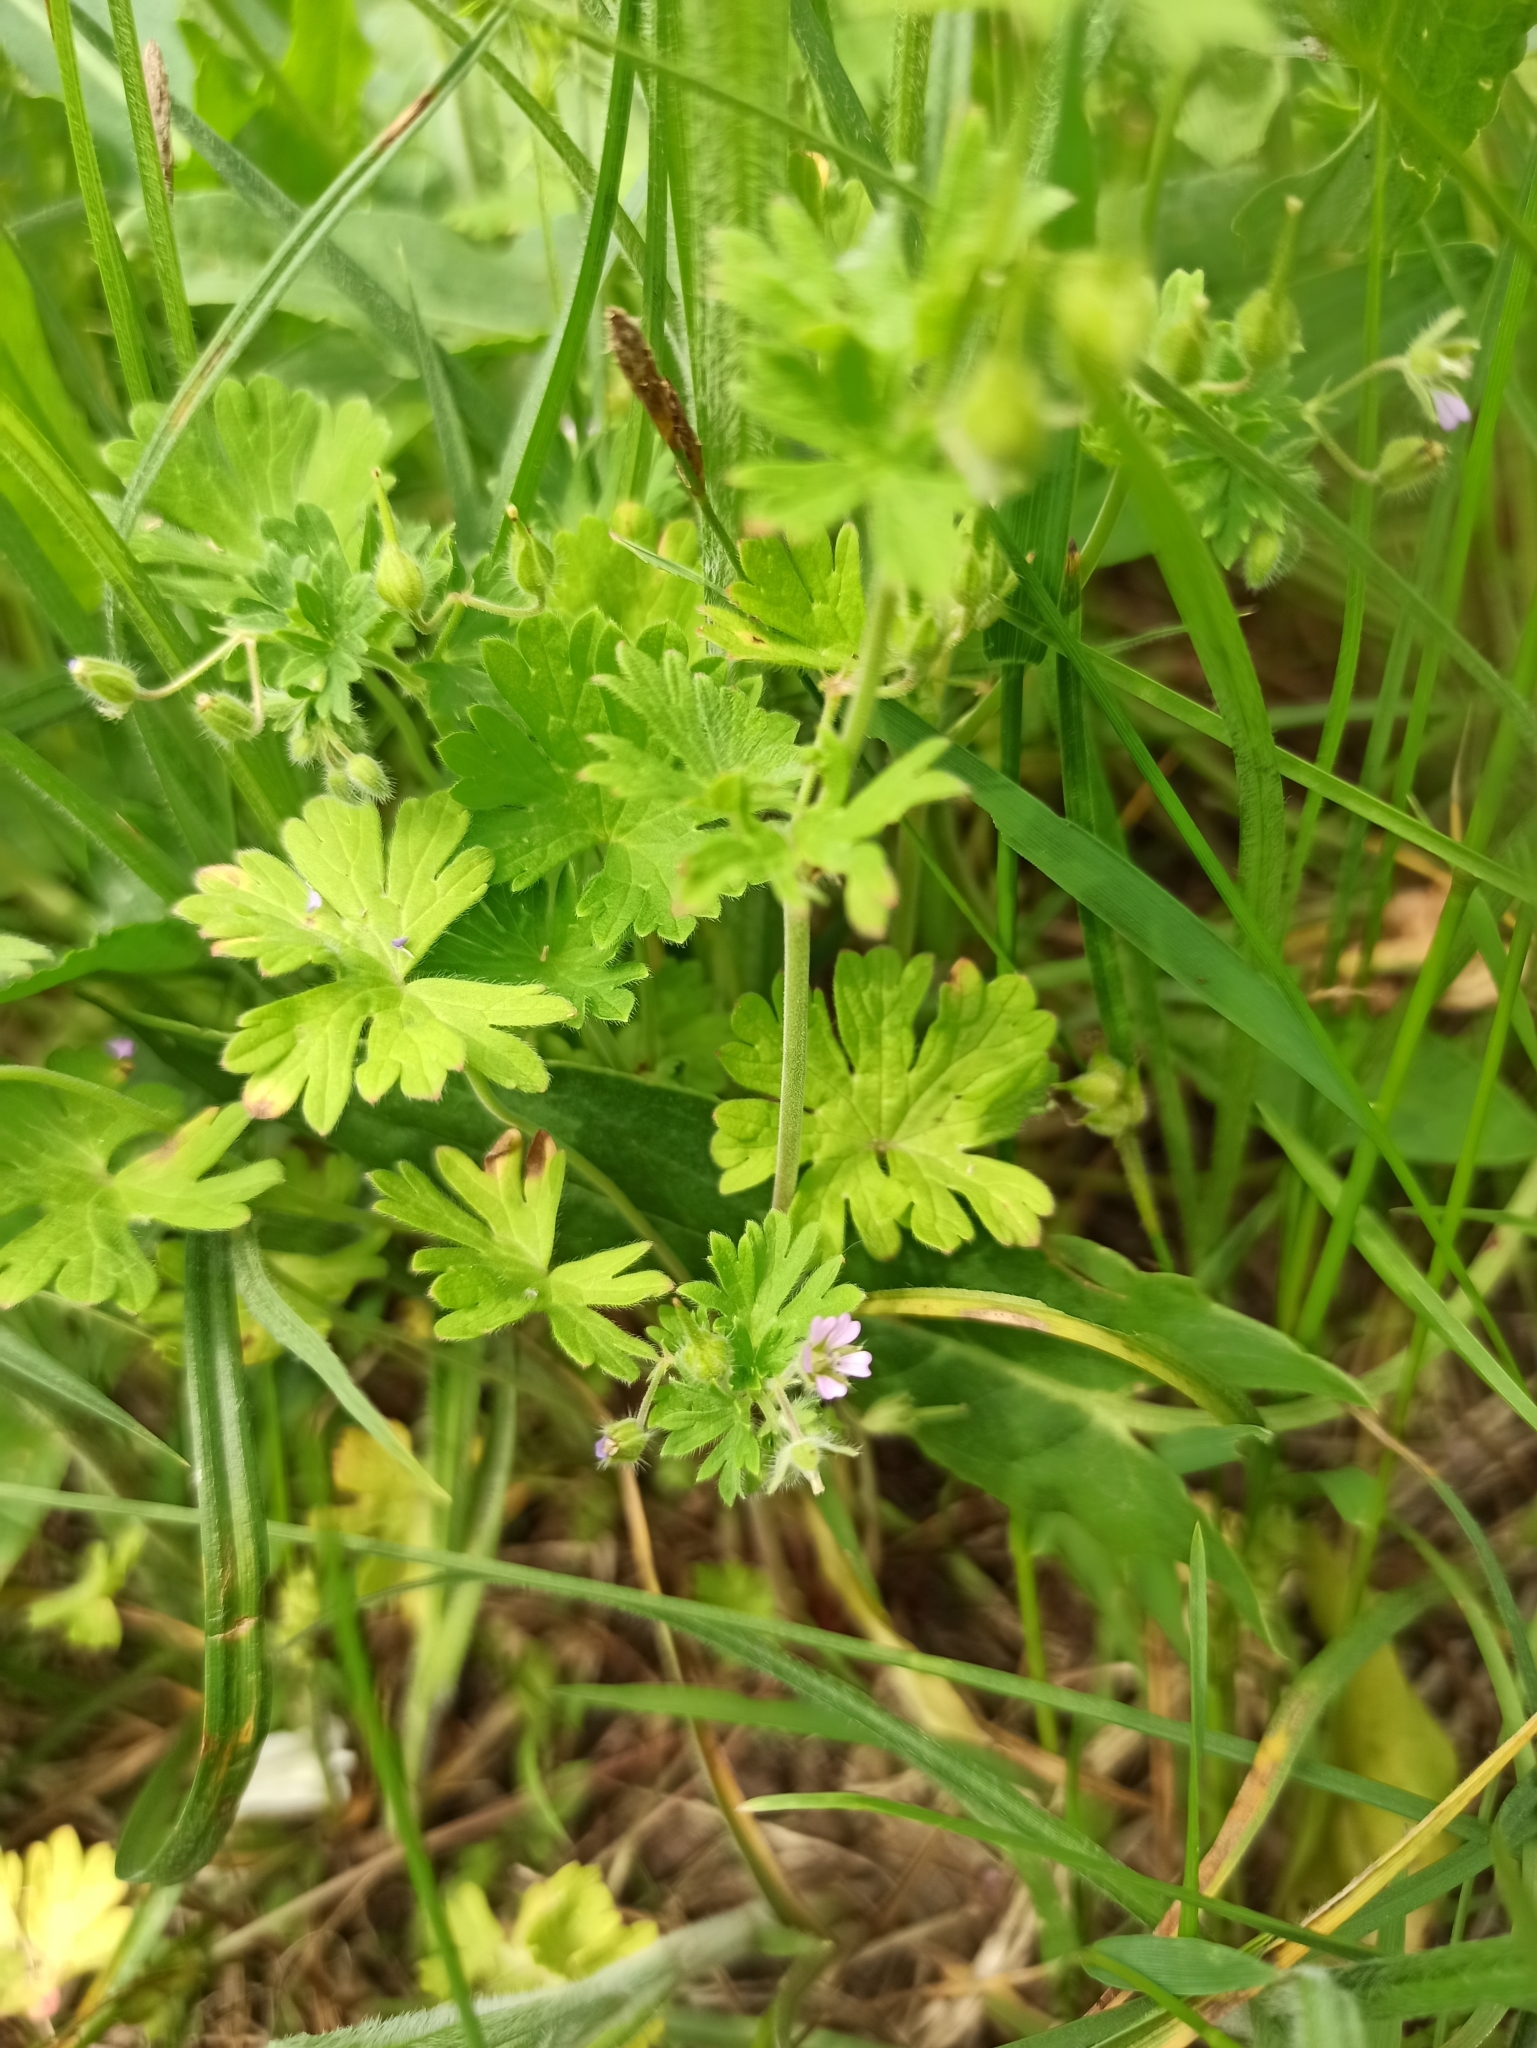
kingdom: Plantae
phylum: Tracheophyta
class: Magnoliopsida
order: Geraniales
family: Geraniaceae
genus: Geranium
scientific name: Geranium pusillum
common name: Small geranium
